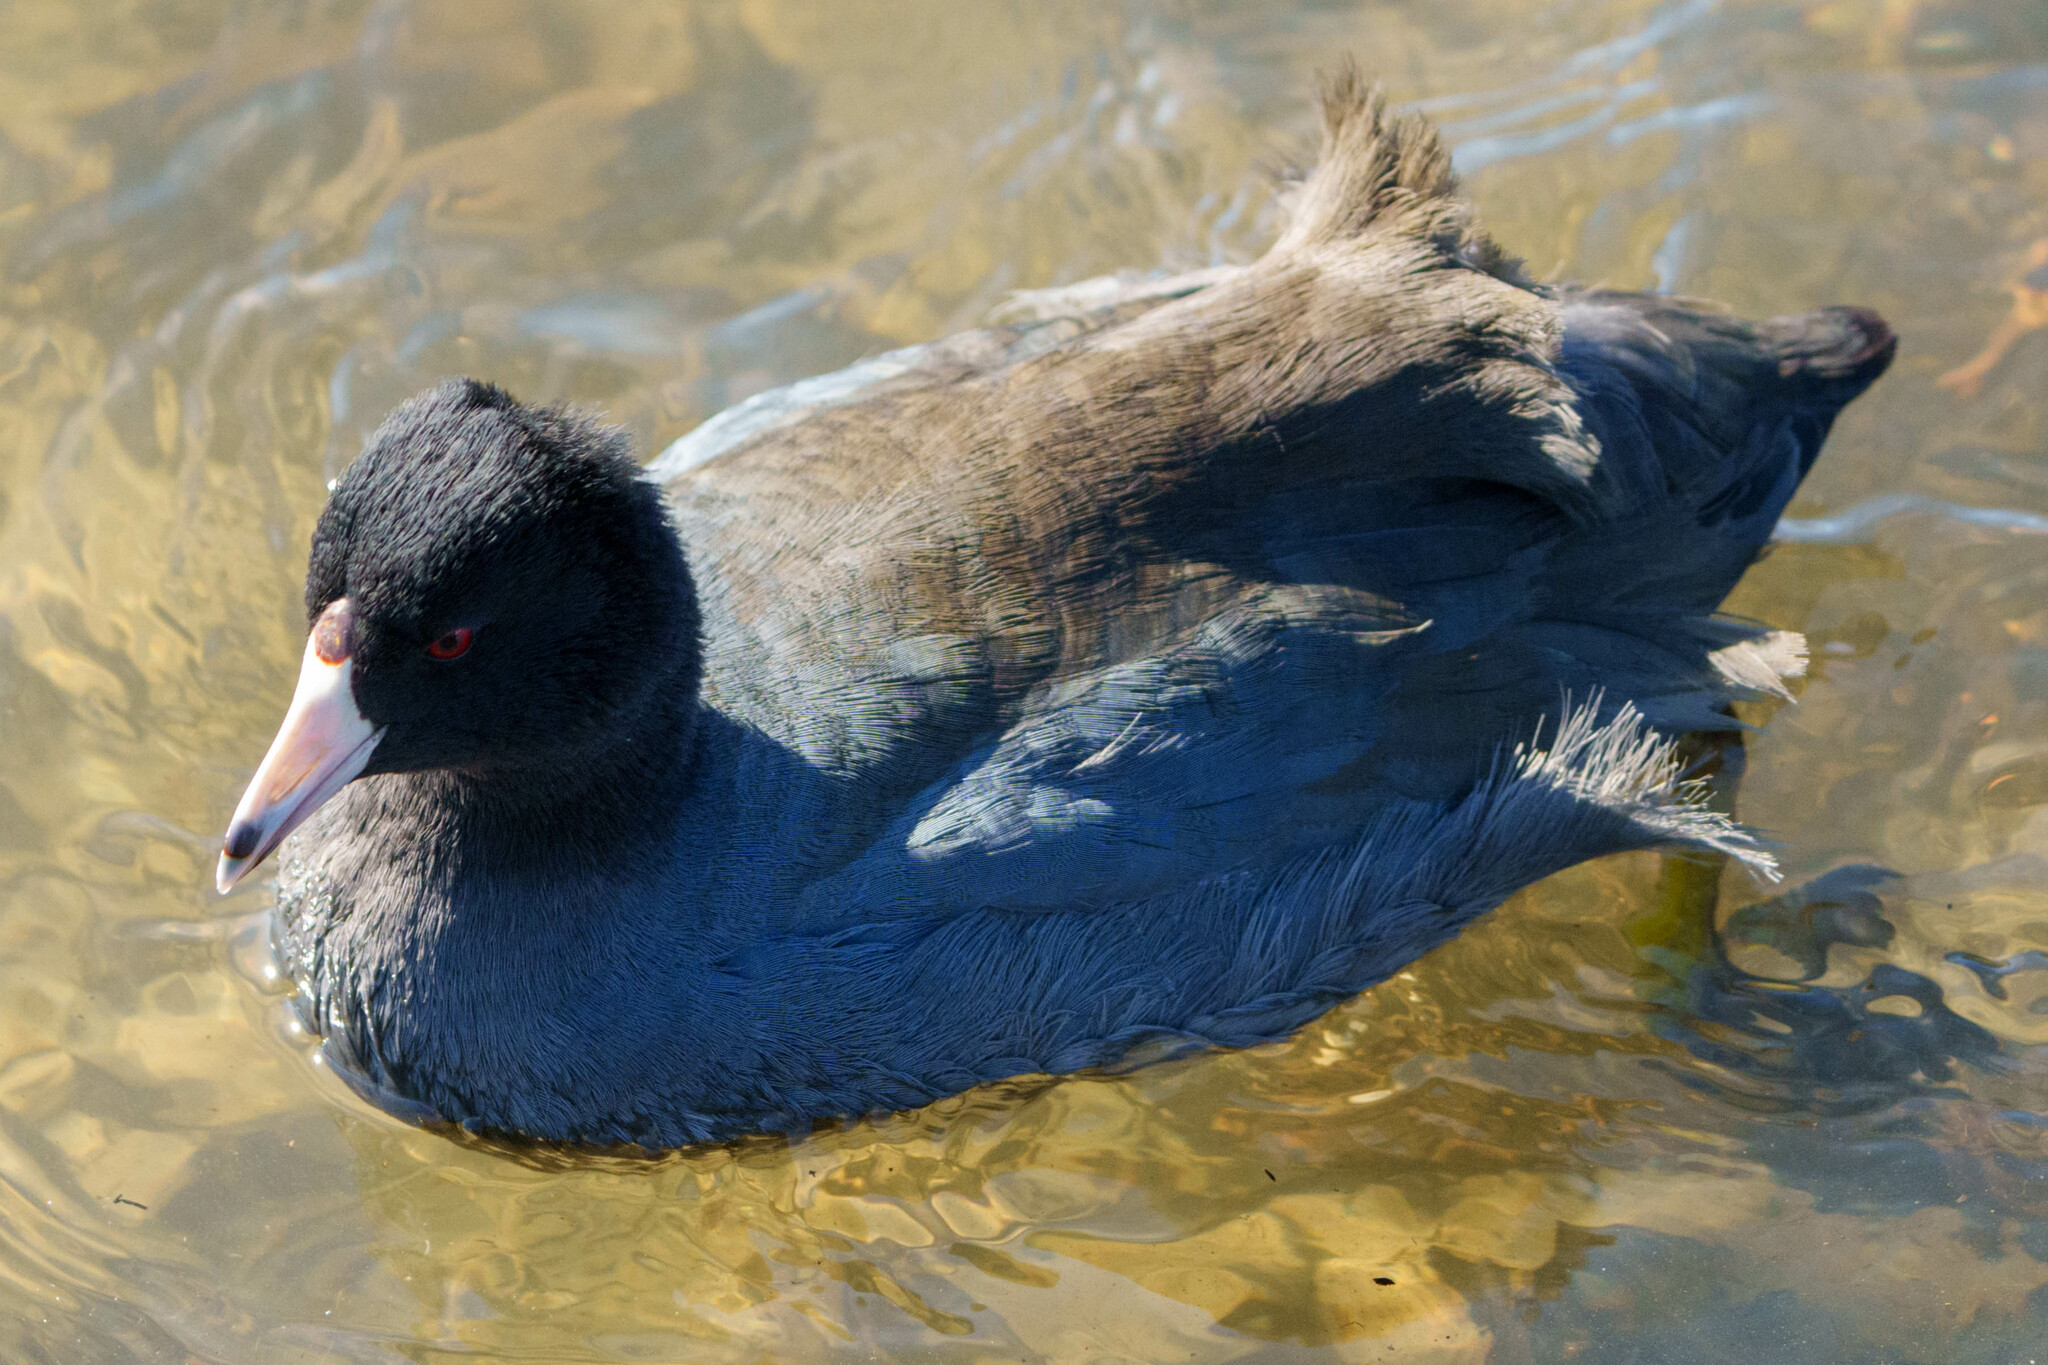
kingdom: Animalia
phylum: Chordata
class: Aves
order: Gruiformes
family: Rallidae
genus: Fulica
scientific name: Fulica americana
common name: American coot
